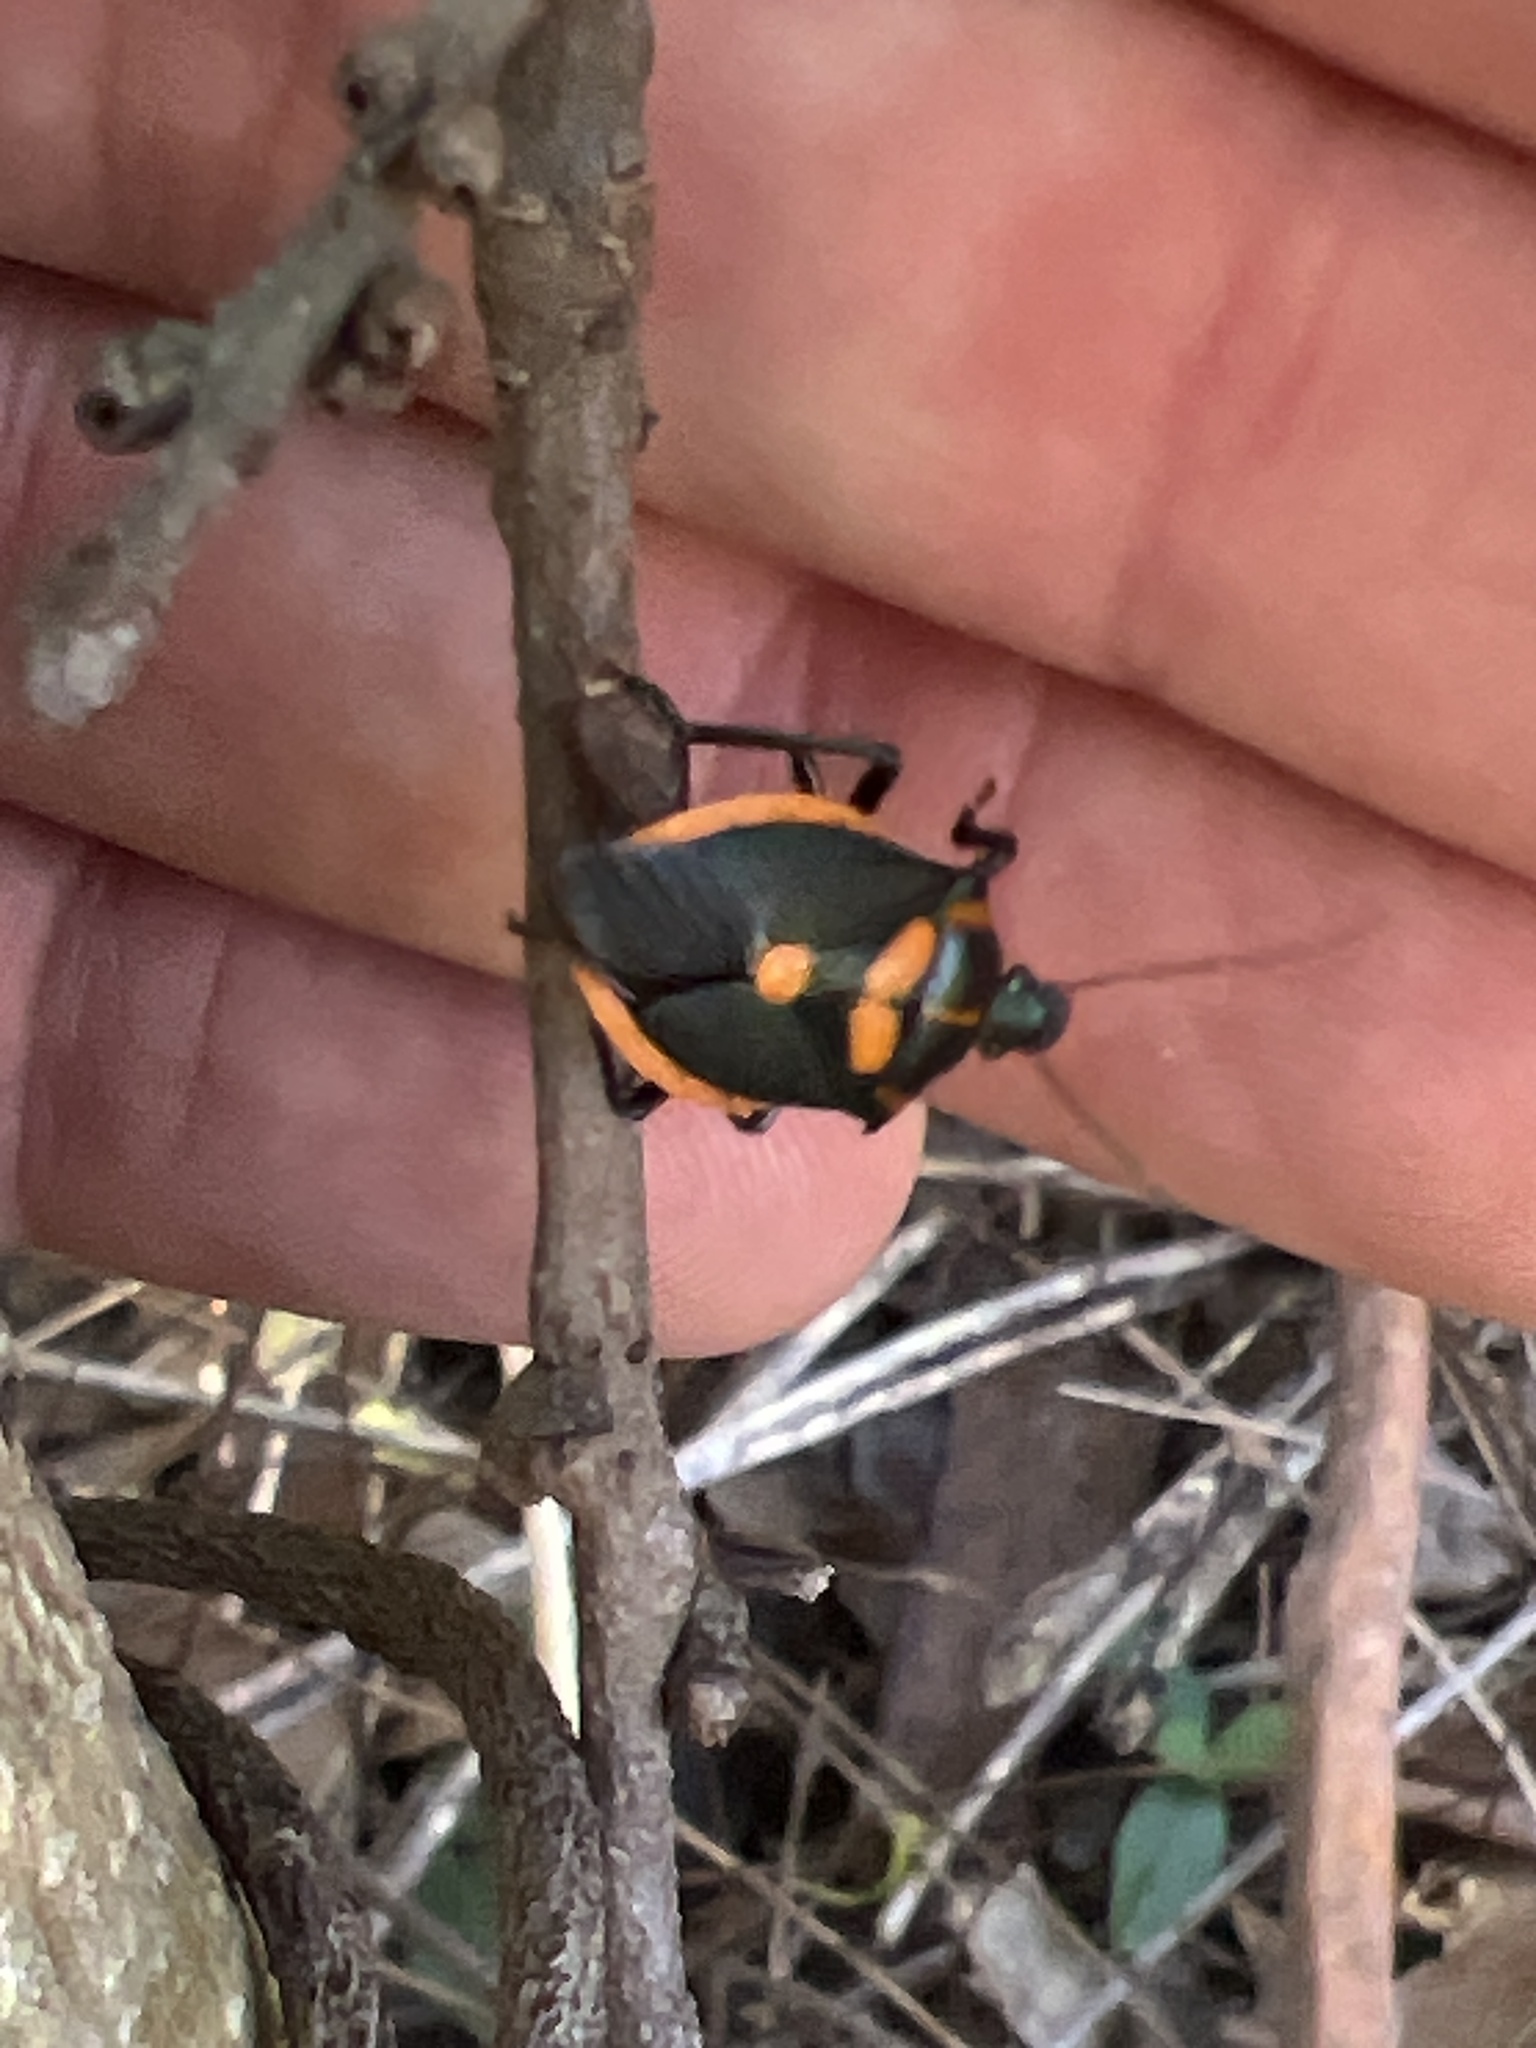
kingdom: Animalia
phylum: Arthropoda
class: Insecta
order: Hemiptera
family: Pentatomidae
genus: Euthyrhynchus
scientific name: Euthyrhynchus floridanus
